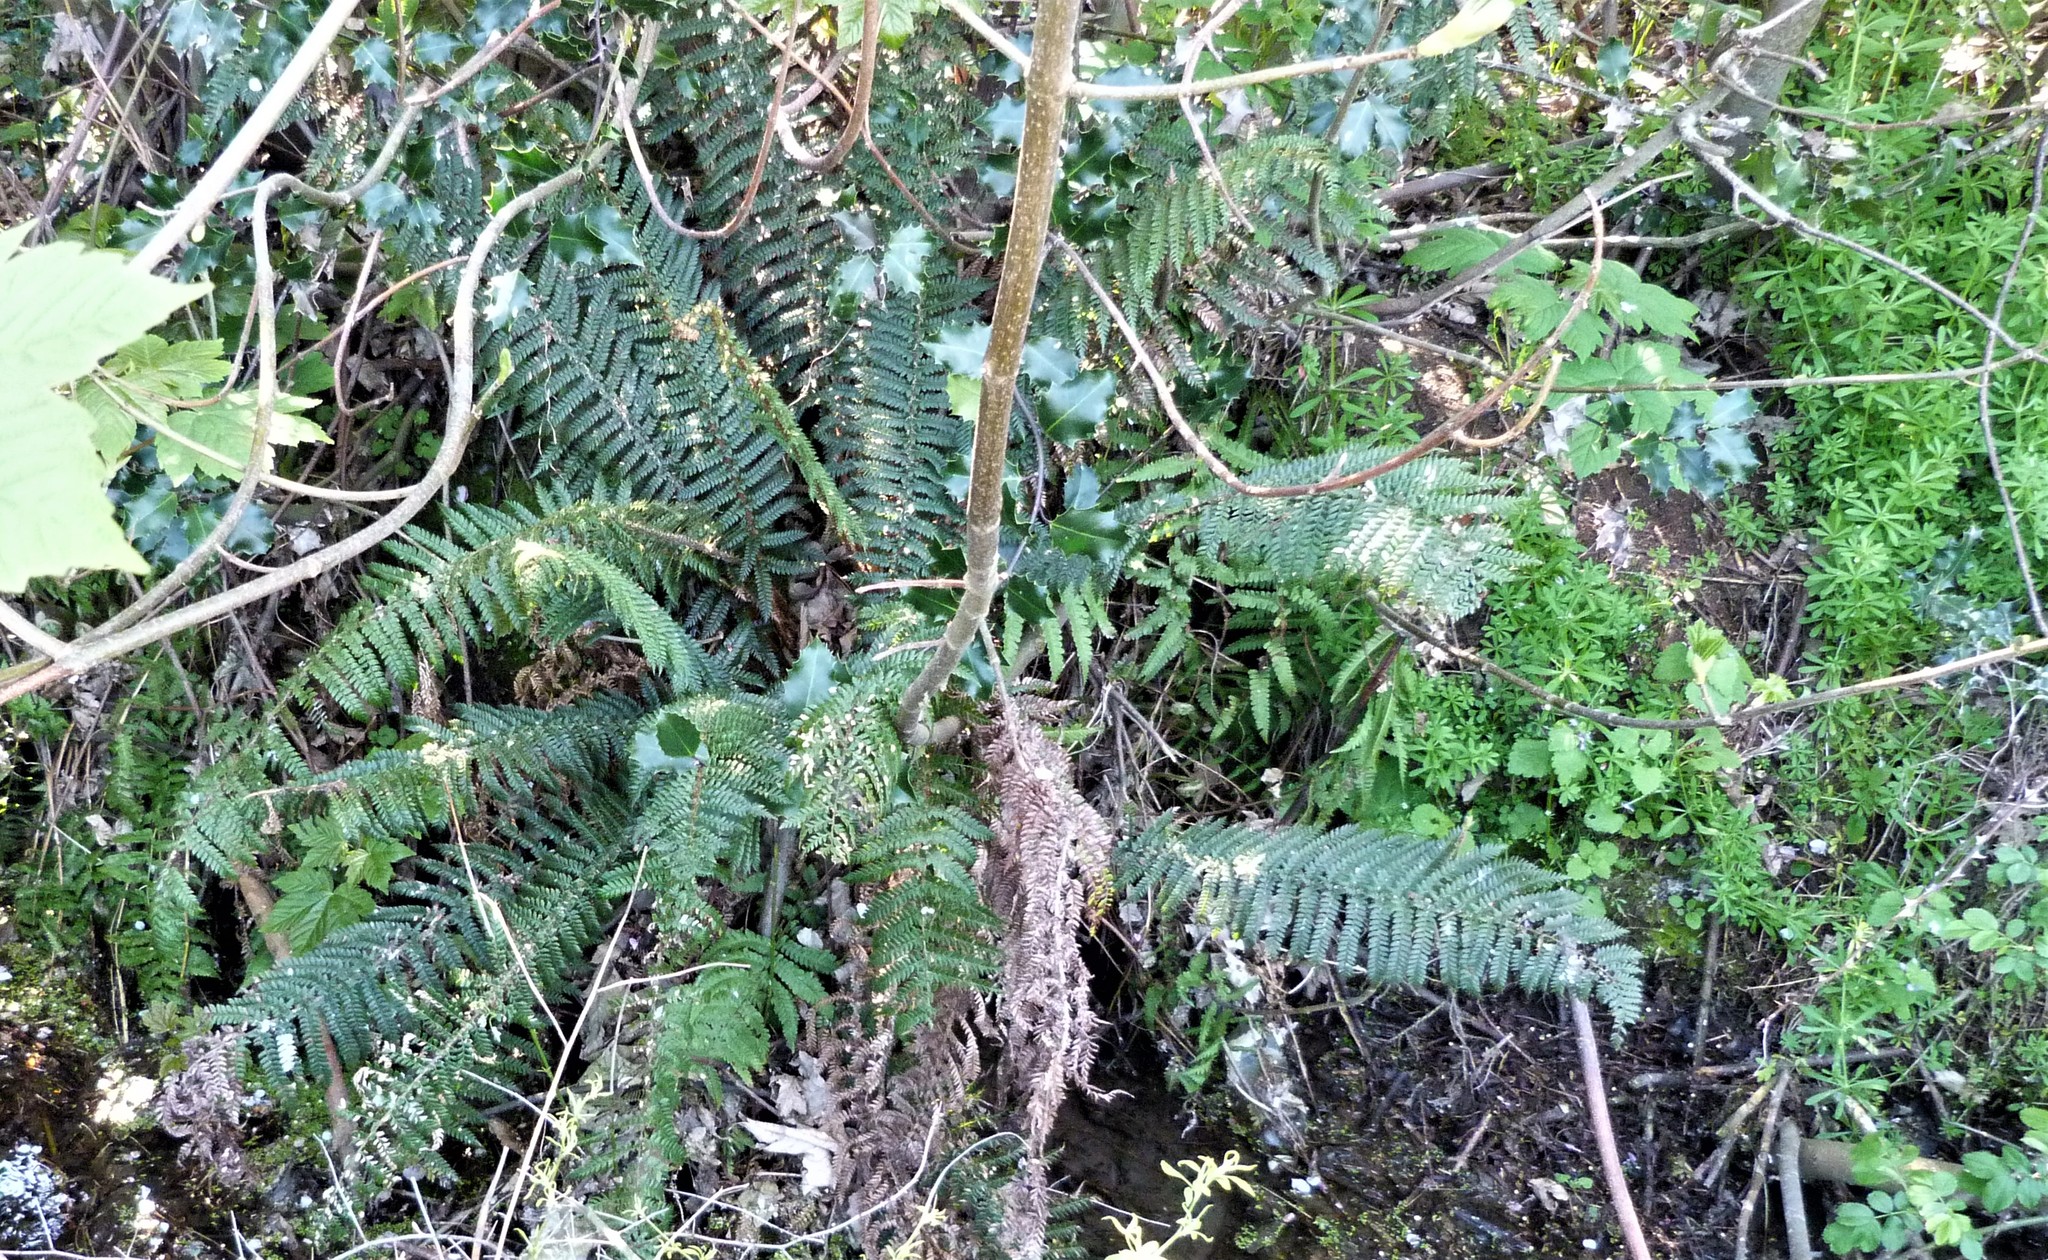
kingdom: Plantae
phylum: Tracheophyta
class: Polypodiopsida
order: Polypodiales
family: Dryopteridaceae
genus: Polystichum
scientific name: Polystichum vestitum
